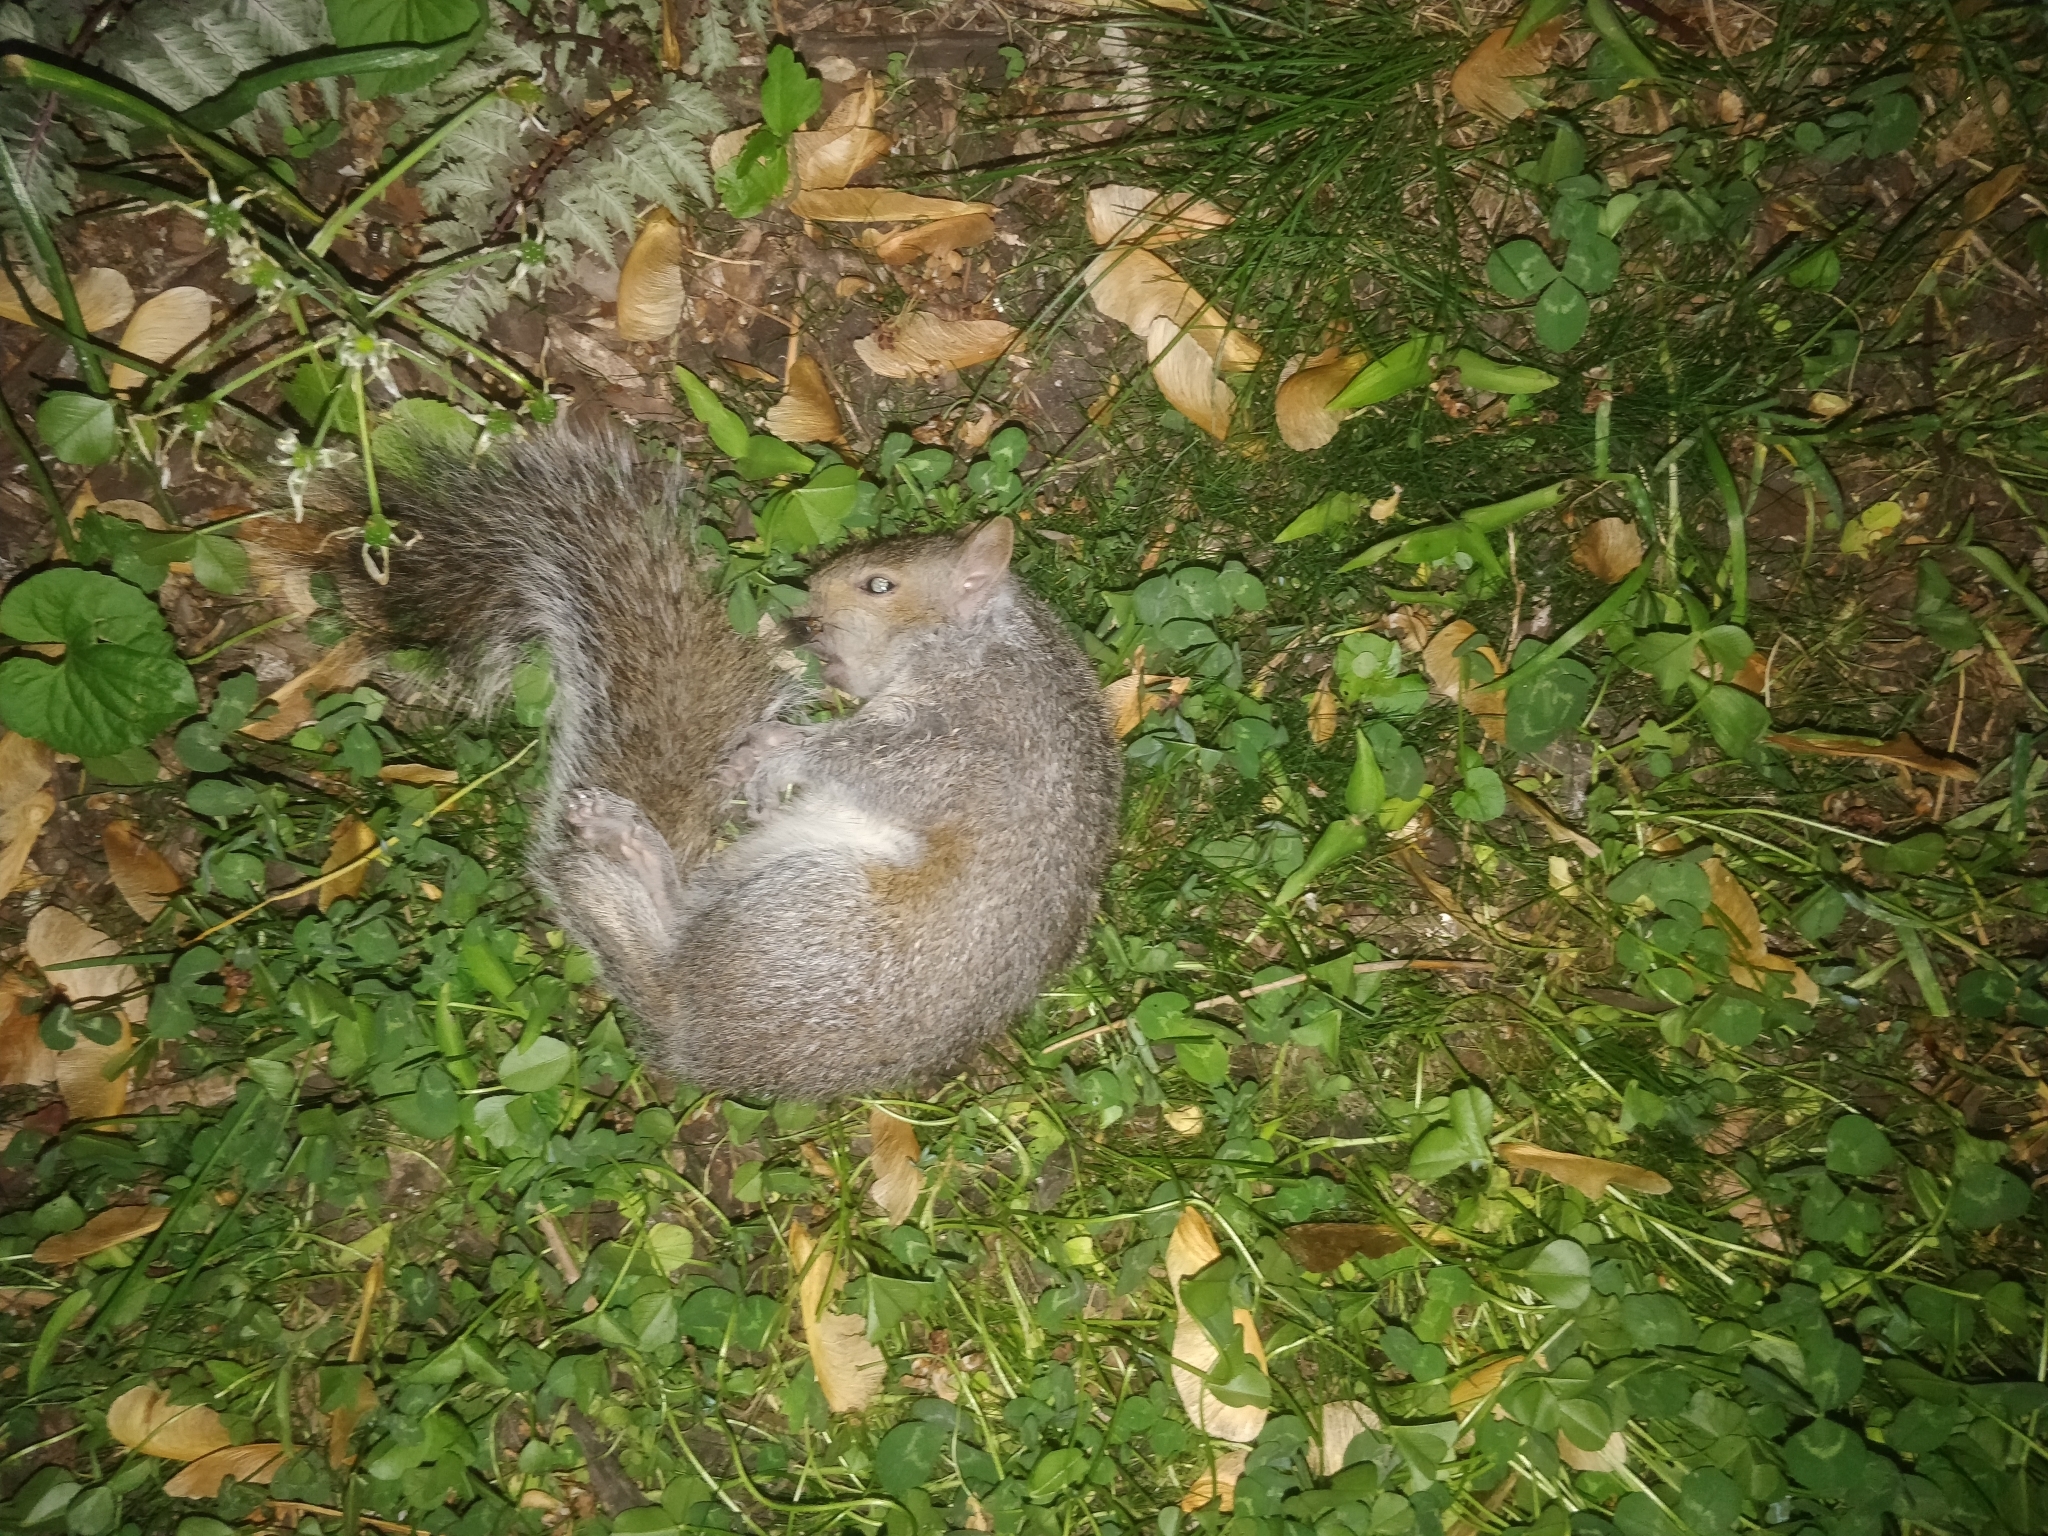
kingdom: Animalia
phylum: Chordata
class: Mammalia
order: Rodentia
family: Sciuridae
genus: Sciurus
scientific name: Sciurus carolinensis
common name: Eastern gray squirrel
